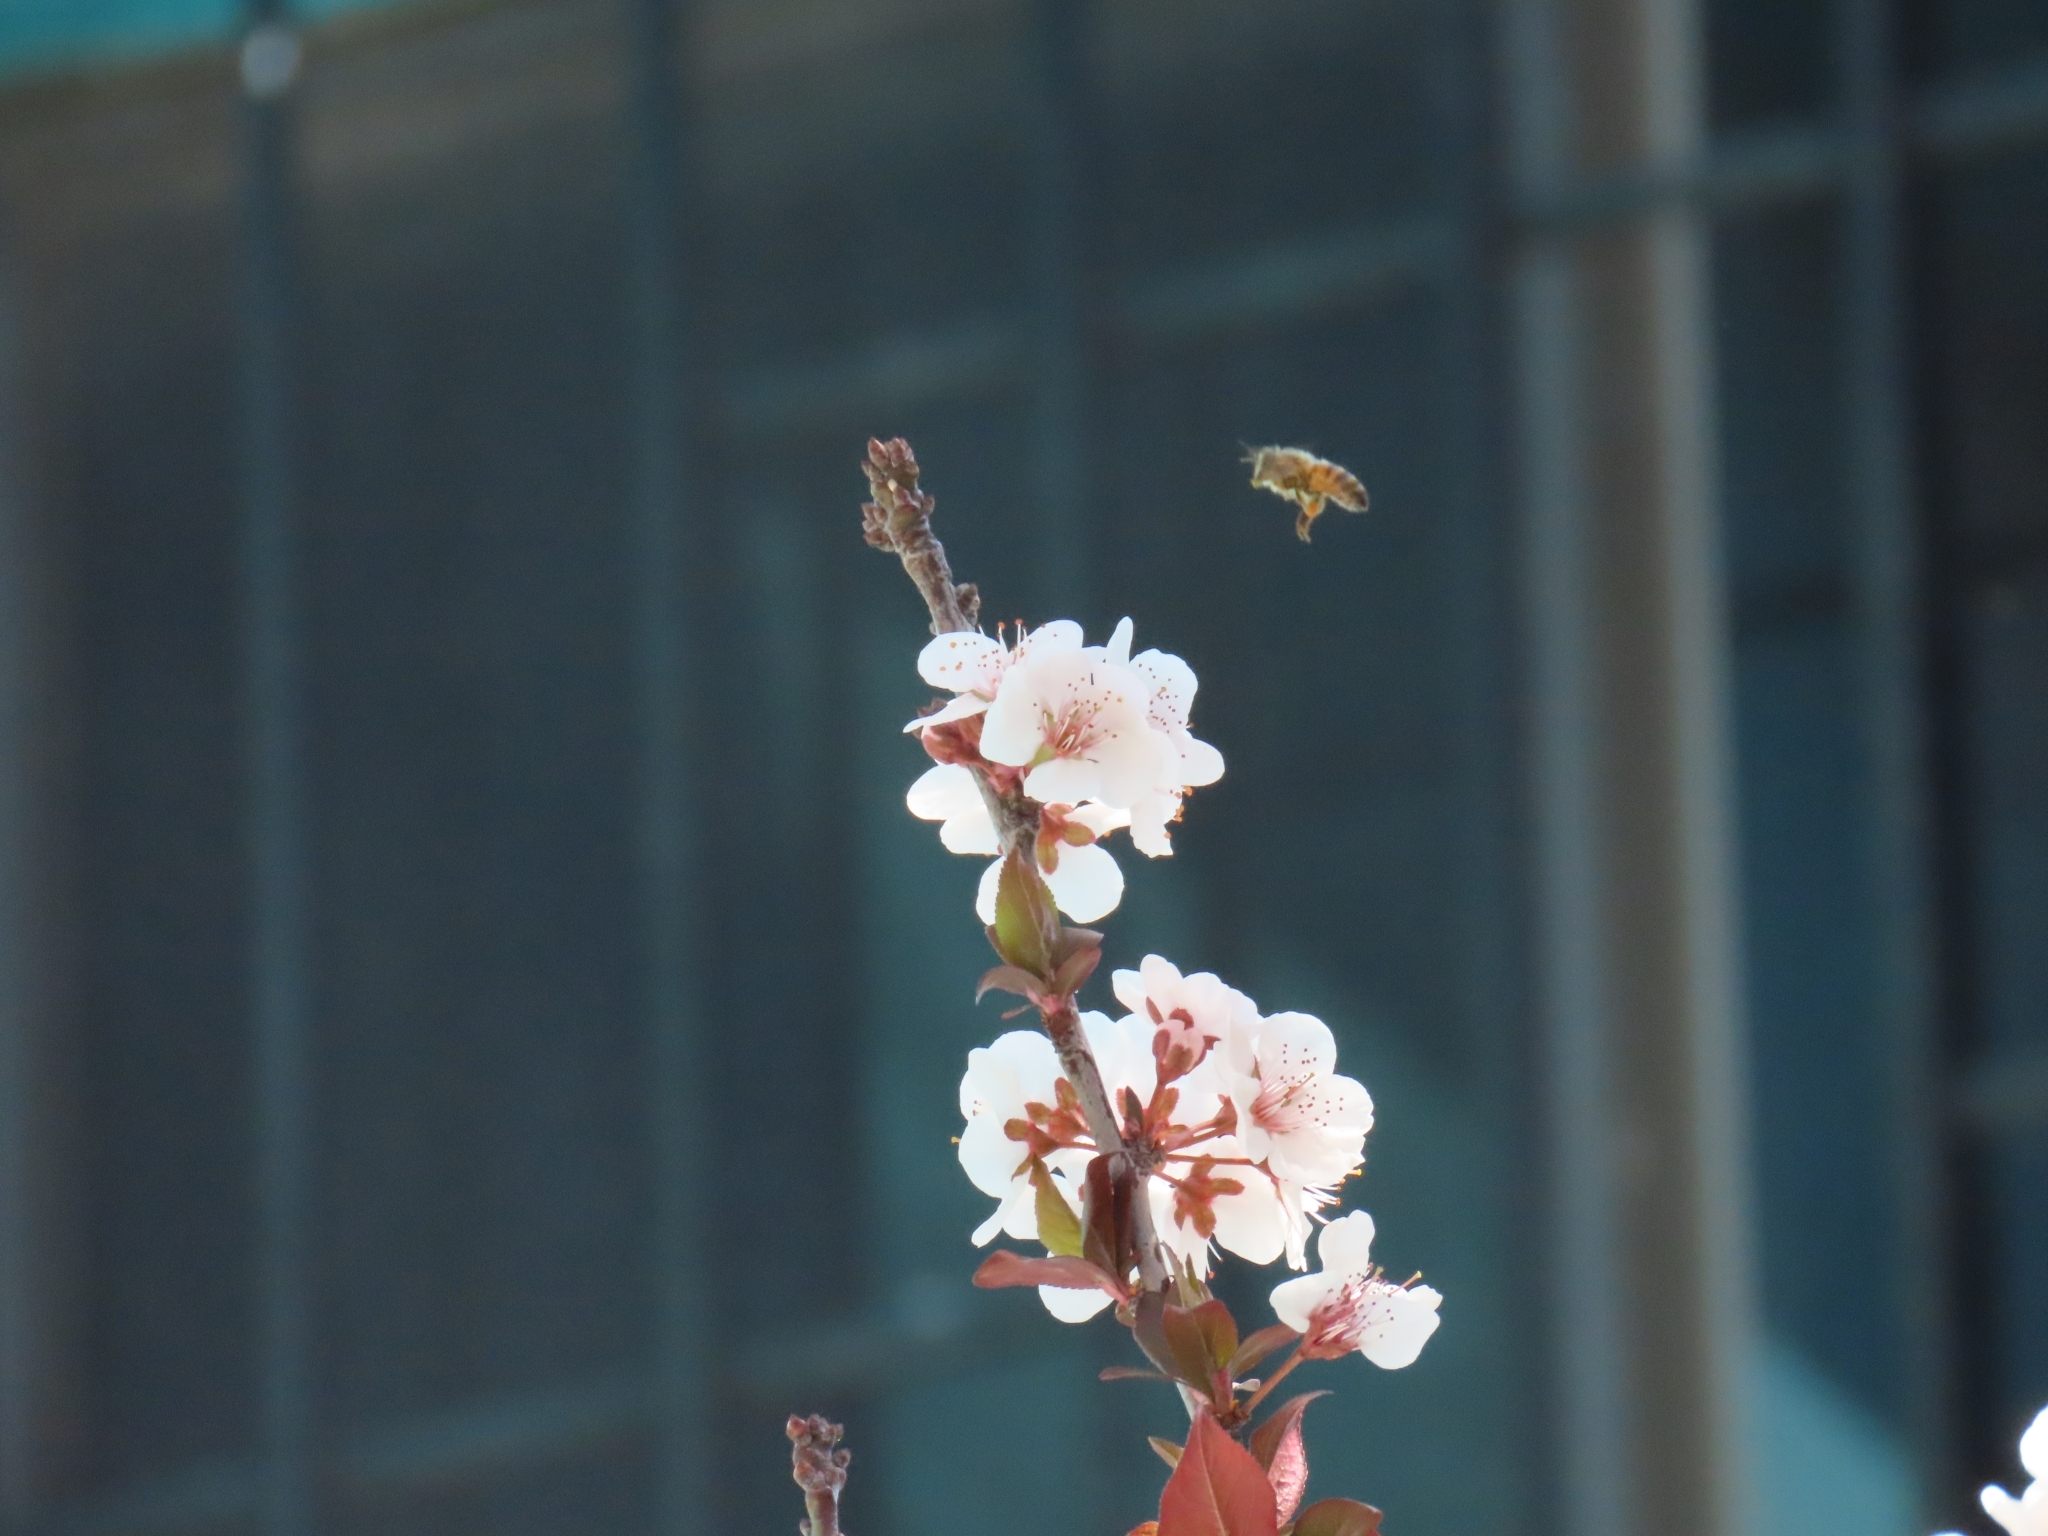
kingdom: Animalia
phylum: Arthropoda
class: Insecta
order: Hymenoptera
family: Apidae
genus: Apis
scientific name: Apis mellifera
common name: Honey bee
